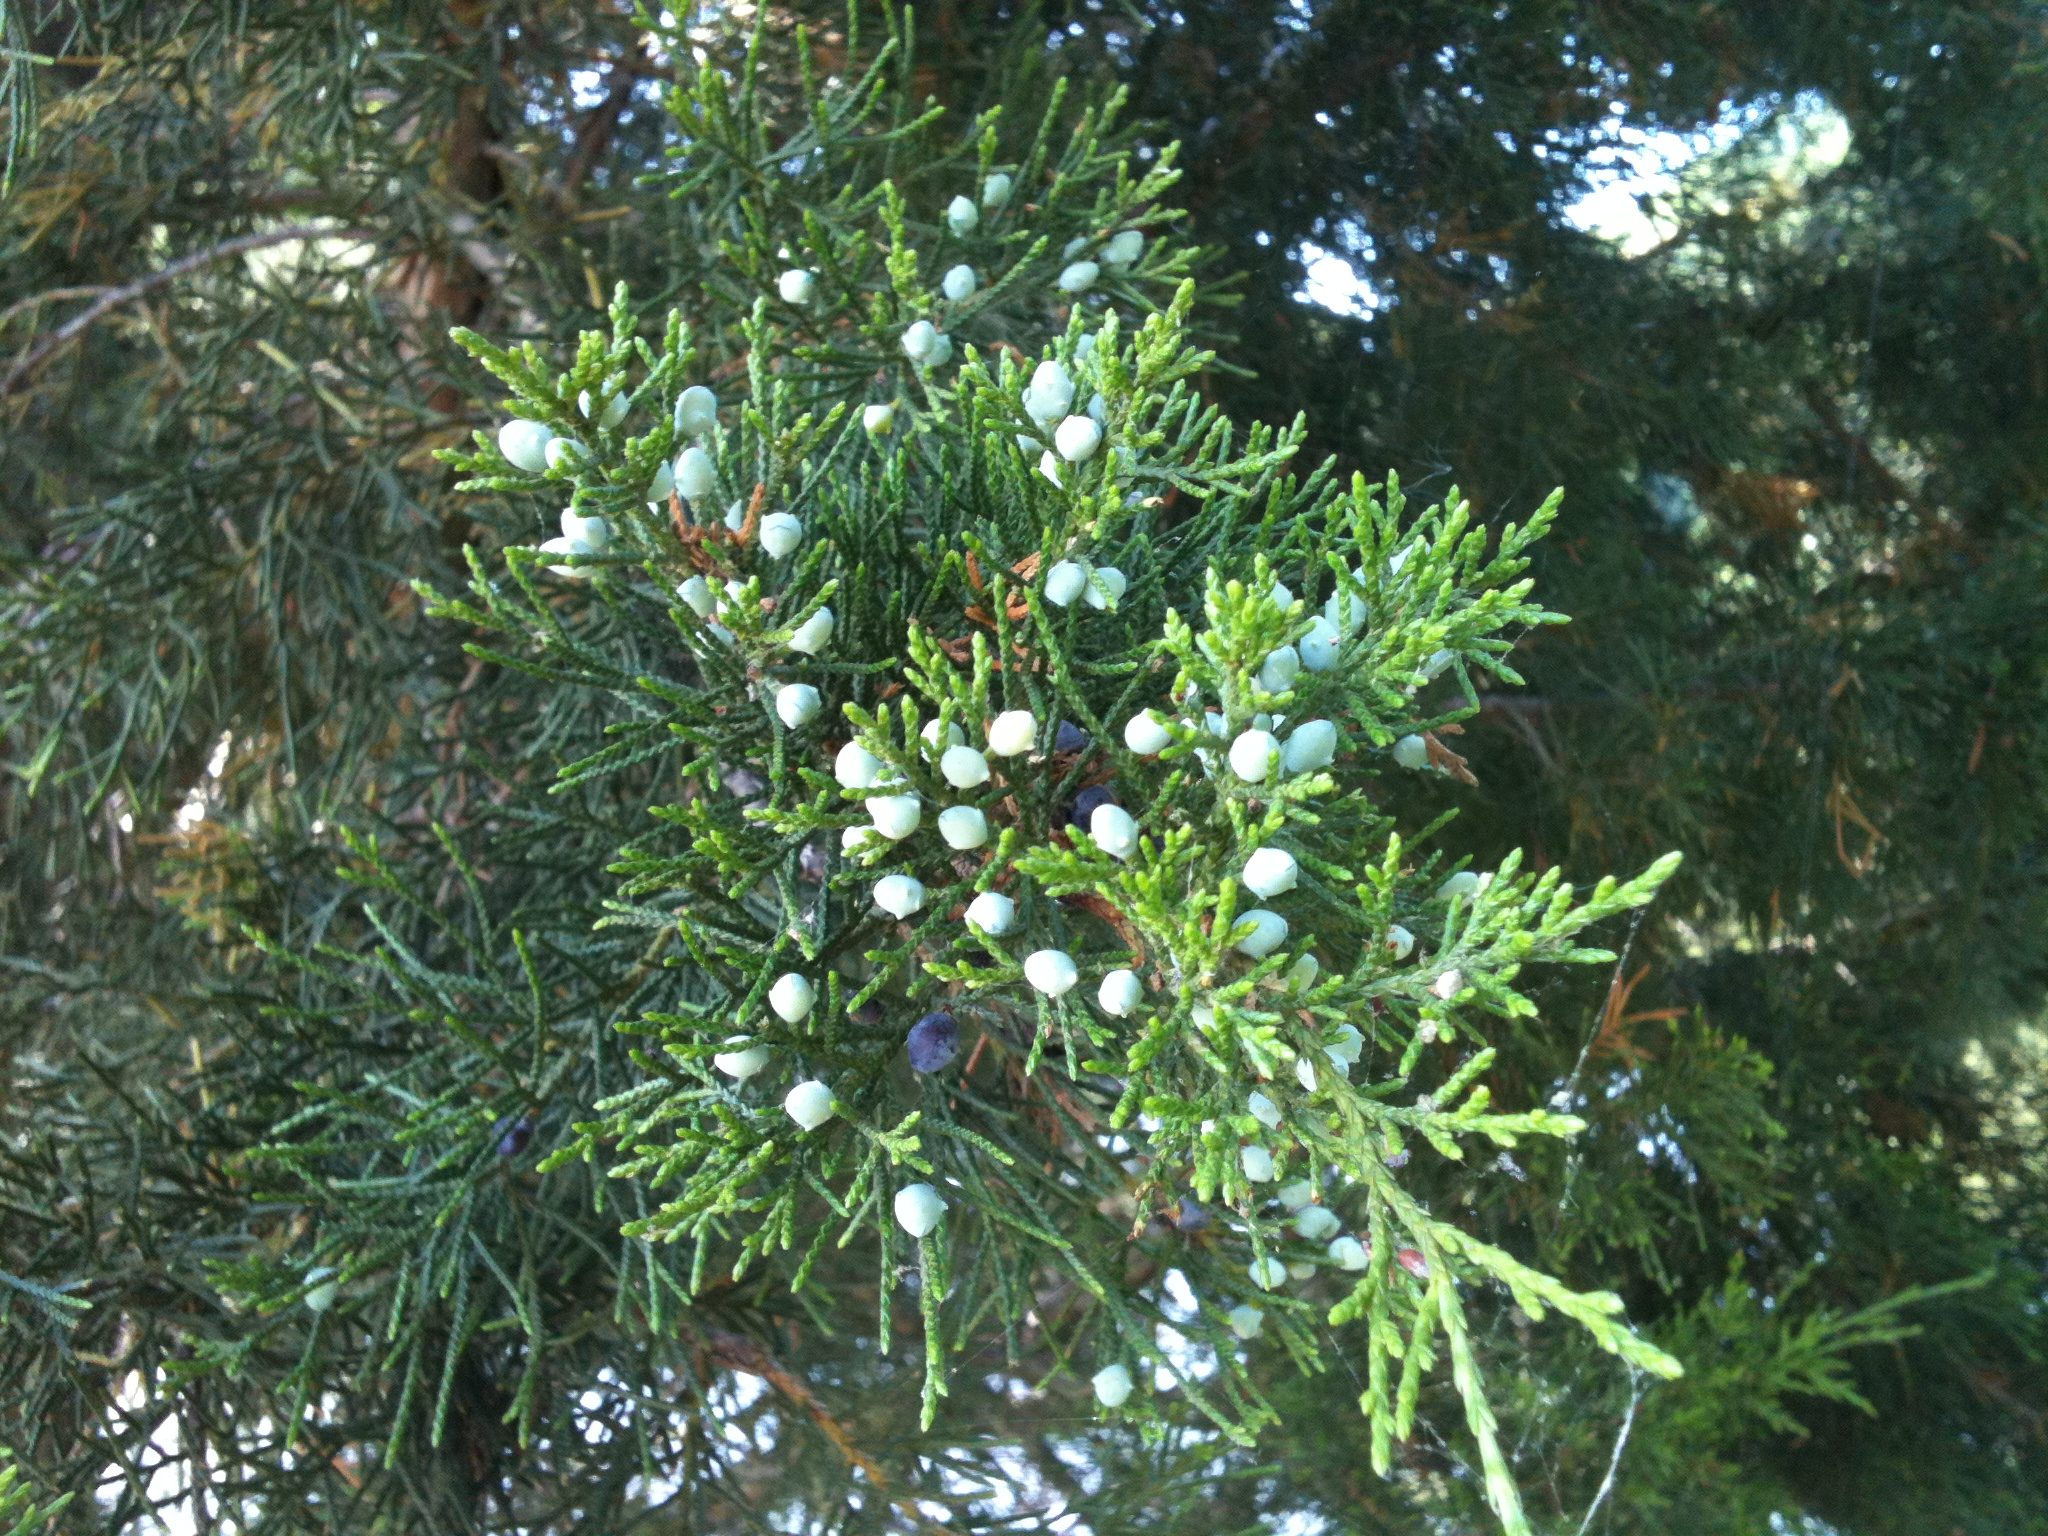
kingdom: Plantae
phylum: Tracheophyta
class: Pinopsida
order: Pinales
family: Cupressaceae
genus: Juniperus
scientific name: Juniperus virginiana
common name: Red juniper
